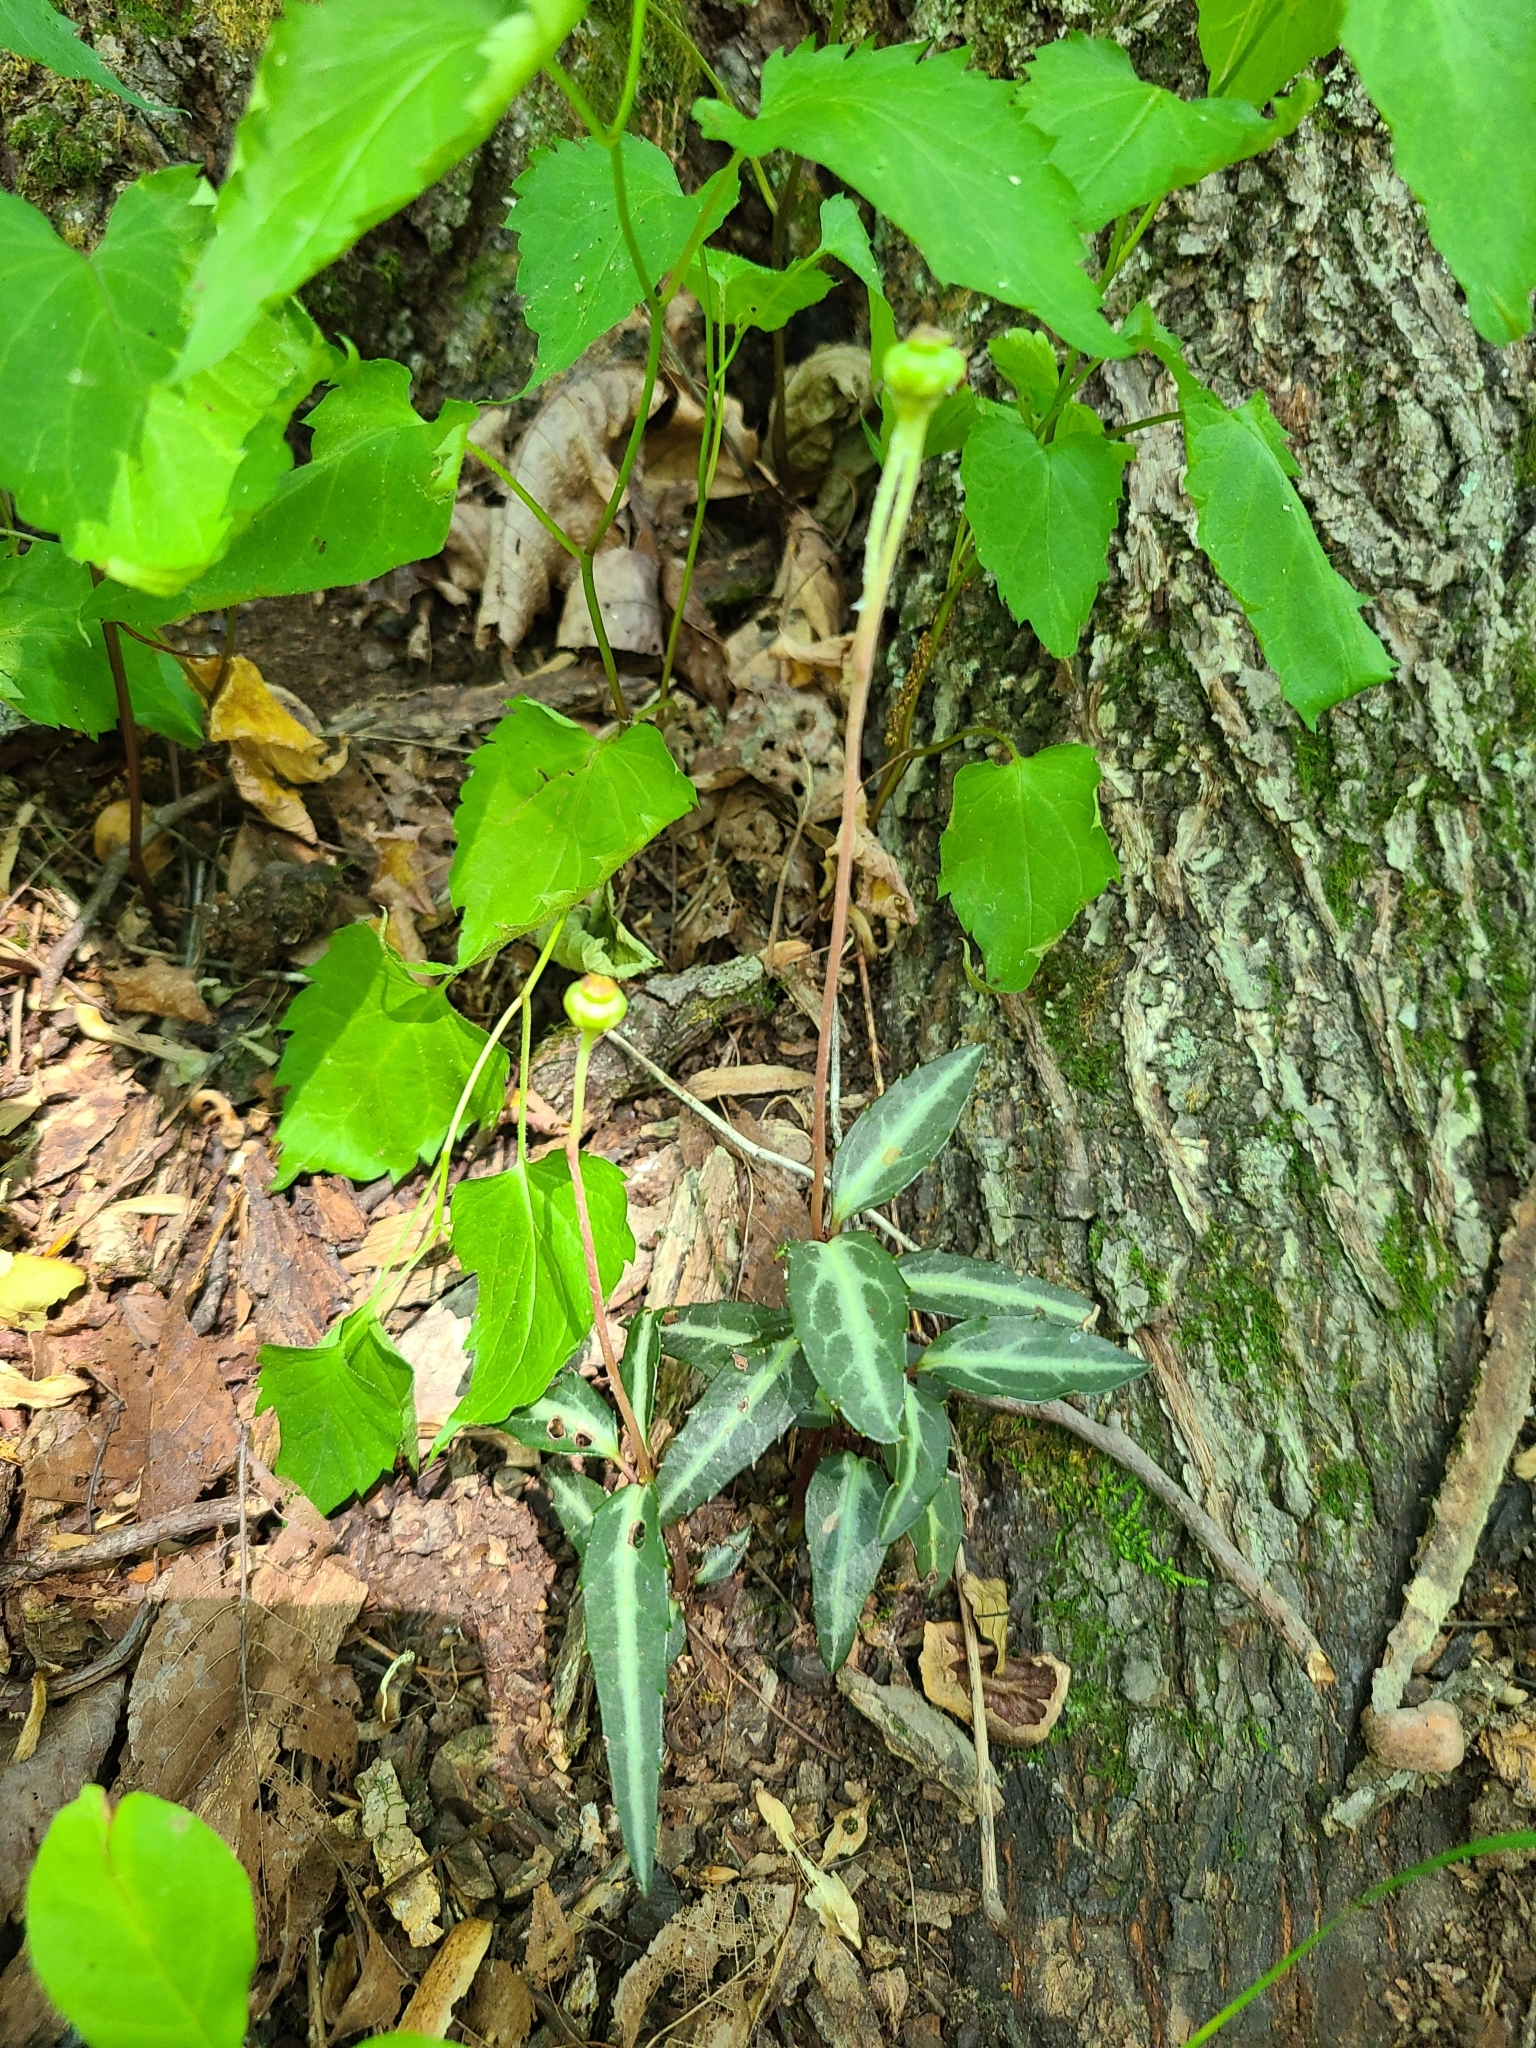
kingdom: Plantae
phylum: Tracheophyta
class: Magnoliopsida
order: Ericales
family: Ericaceae
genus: Chimaphila
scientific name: Chimaphila maculata
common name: Spotted pipsissewa
